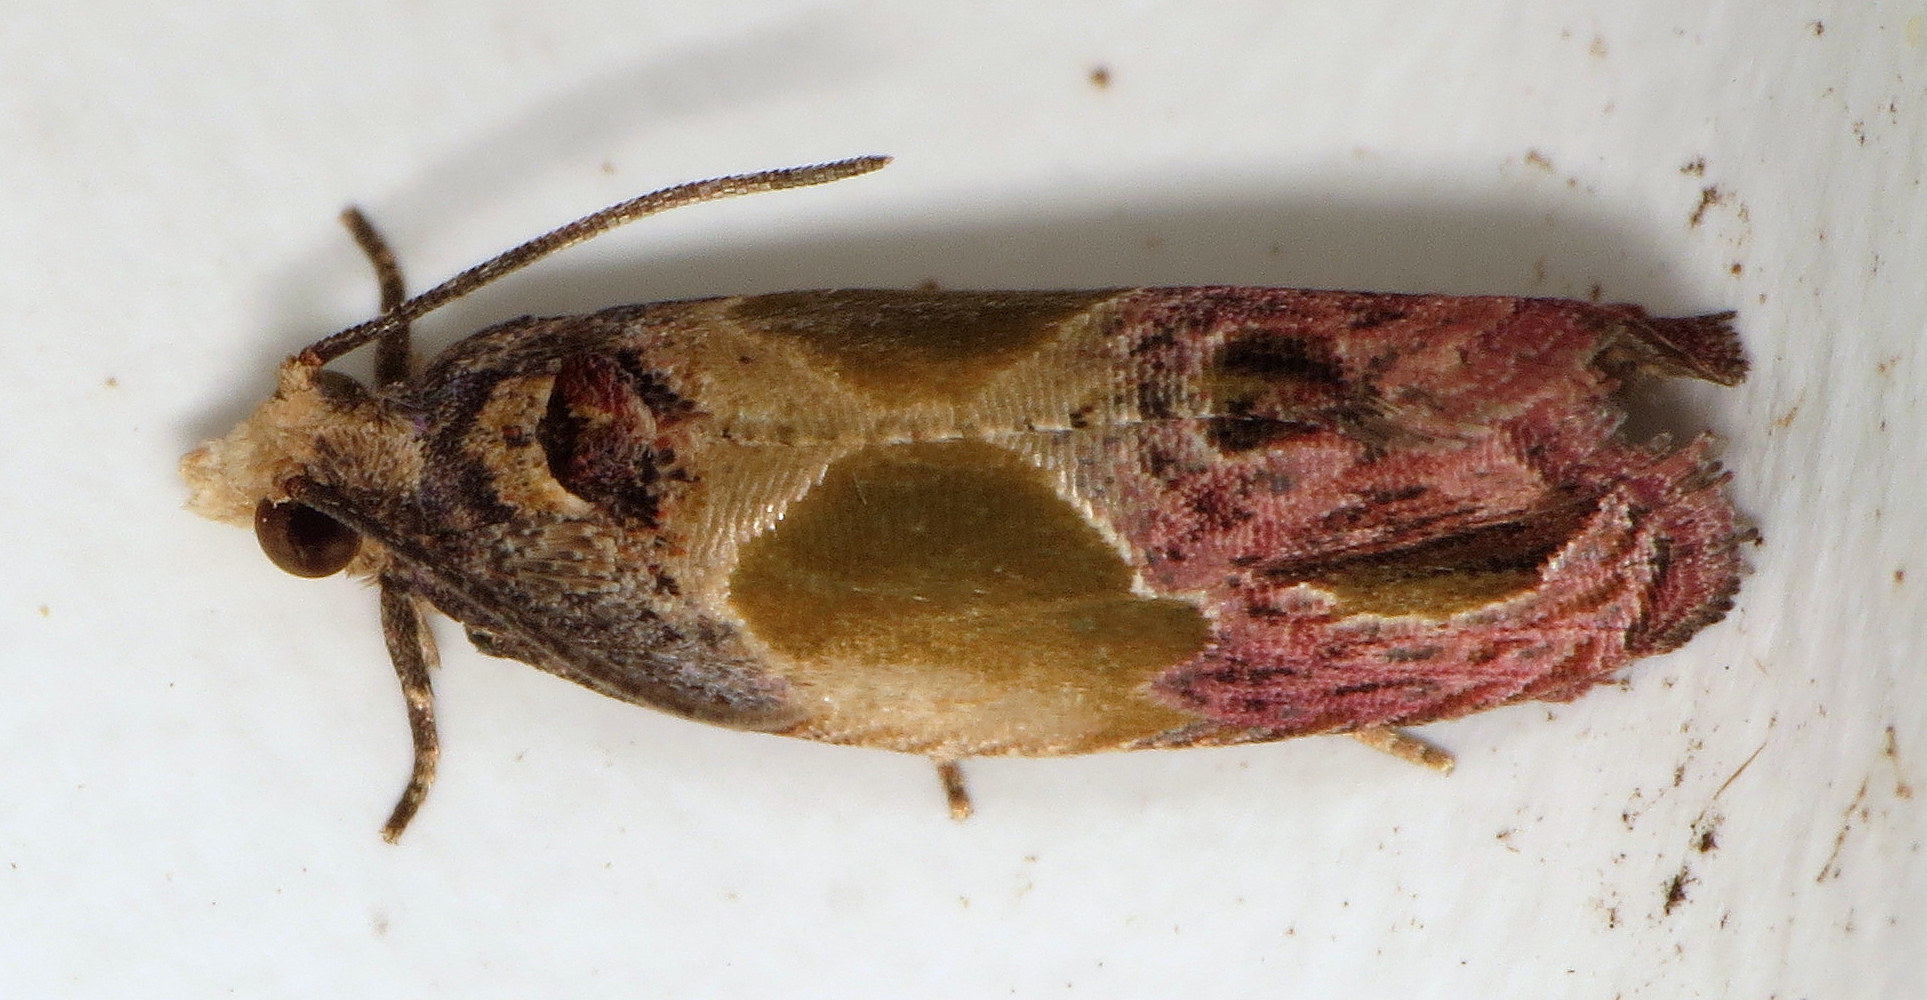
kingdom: Animalia
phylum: Arthropoda
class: Insecta
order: Lepidoptera
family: Tortricidae
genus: Eumarozia
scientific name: Eumarozia malachitana
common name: Sculptured moth
